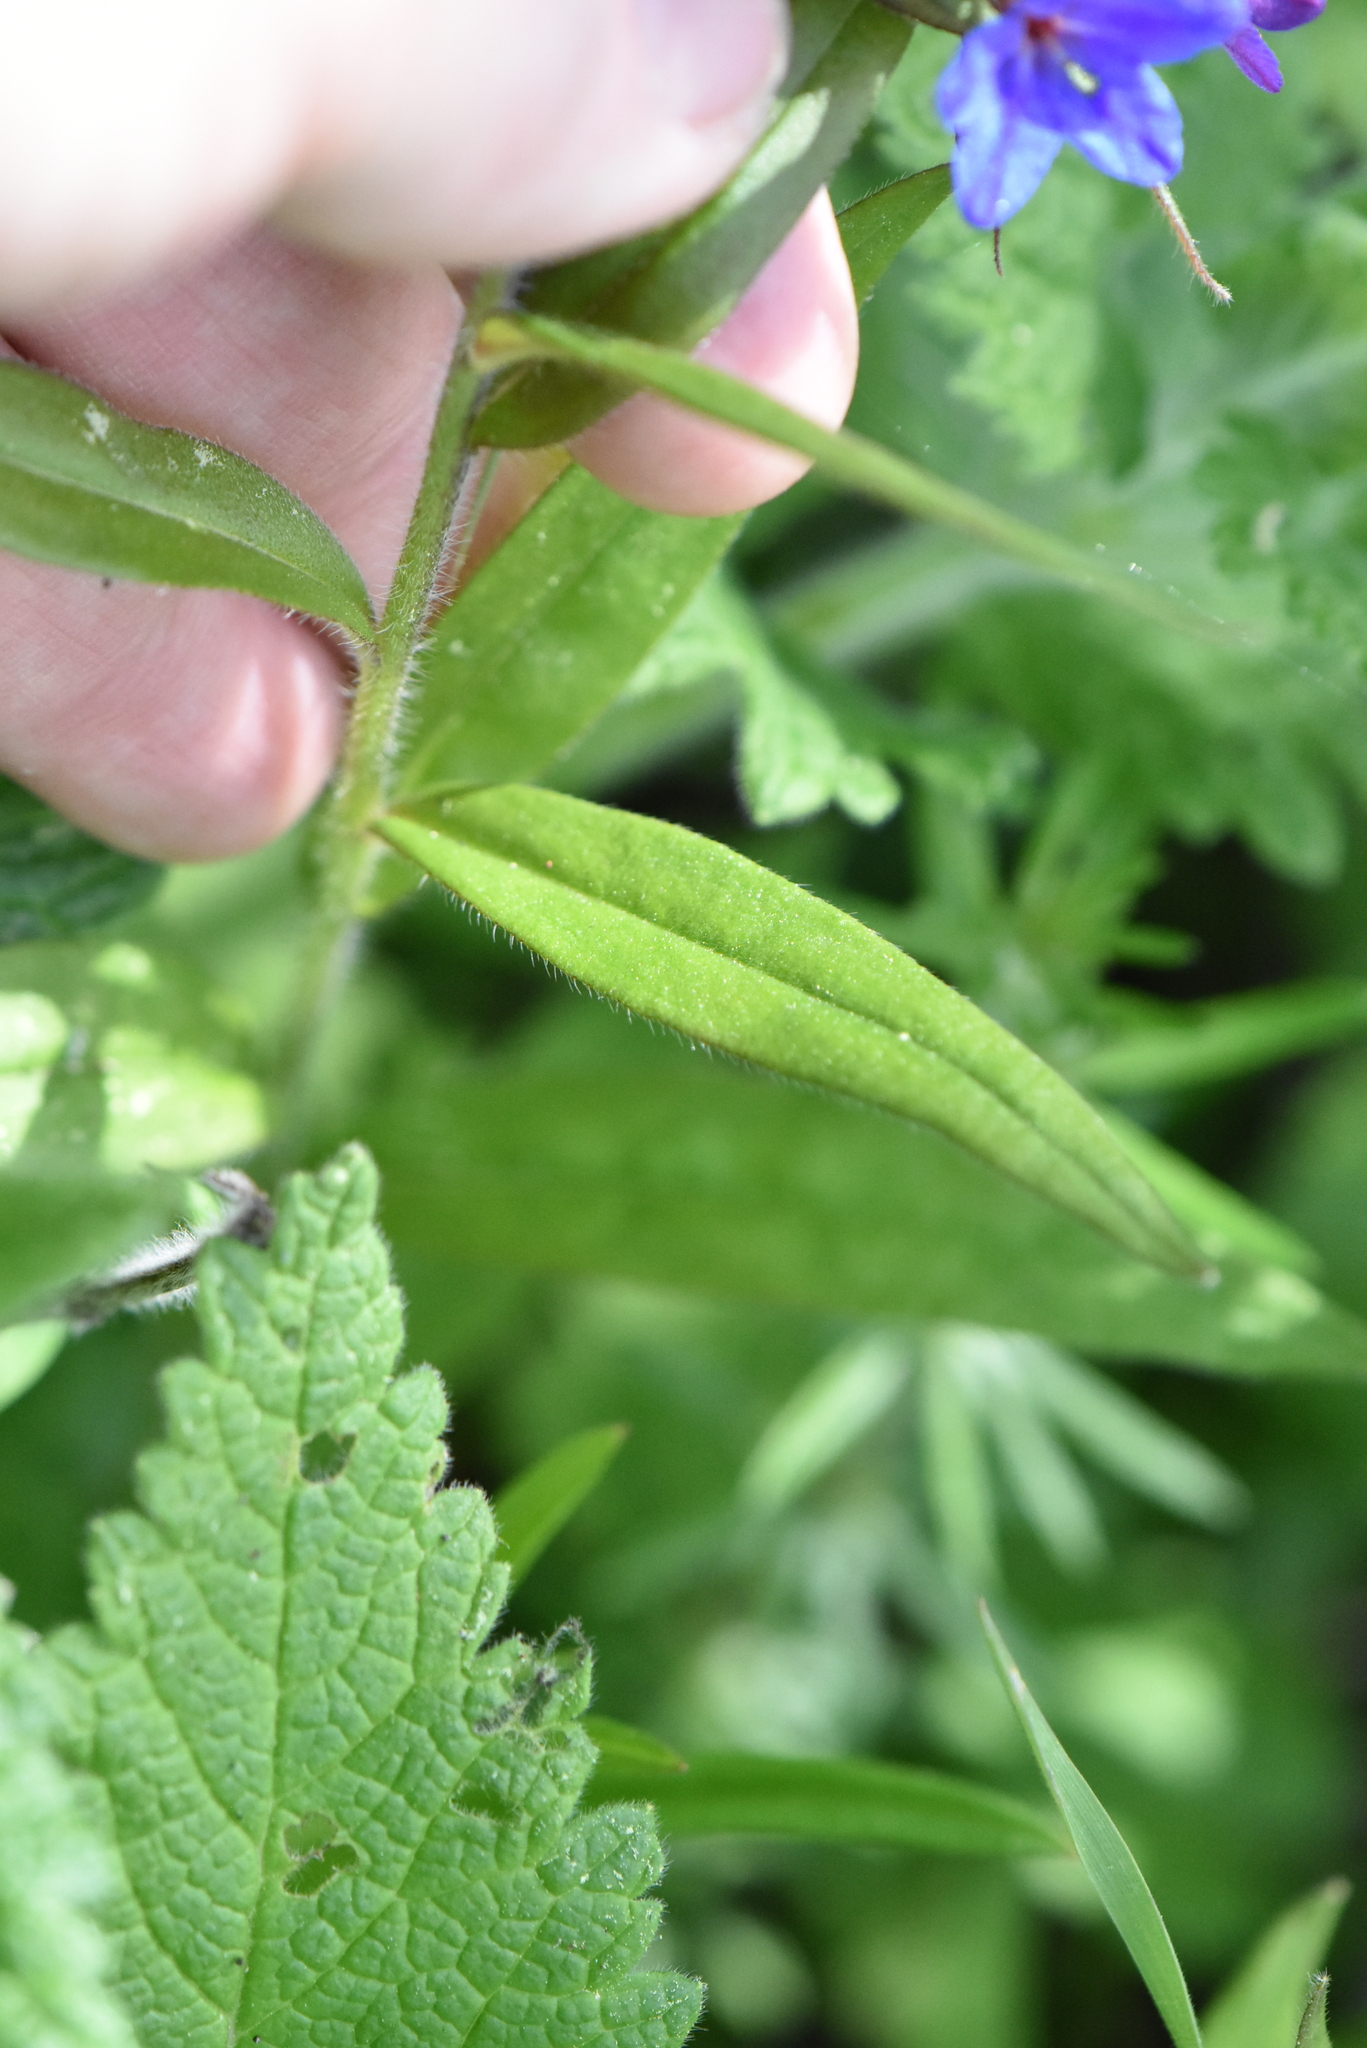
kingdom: Plantae
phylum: Tracheophyta
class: Magnoliopsida
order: Boraginales
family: Boraginaceae
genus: Aegonychon
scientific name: Aegonychon purpurocaeruleum
